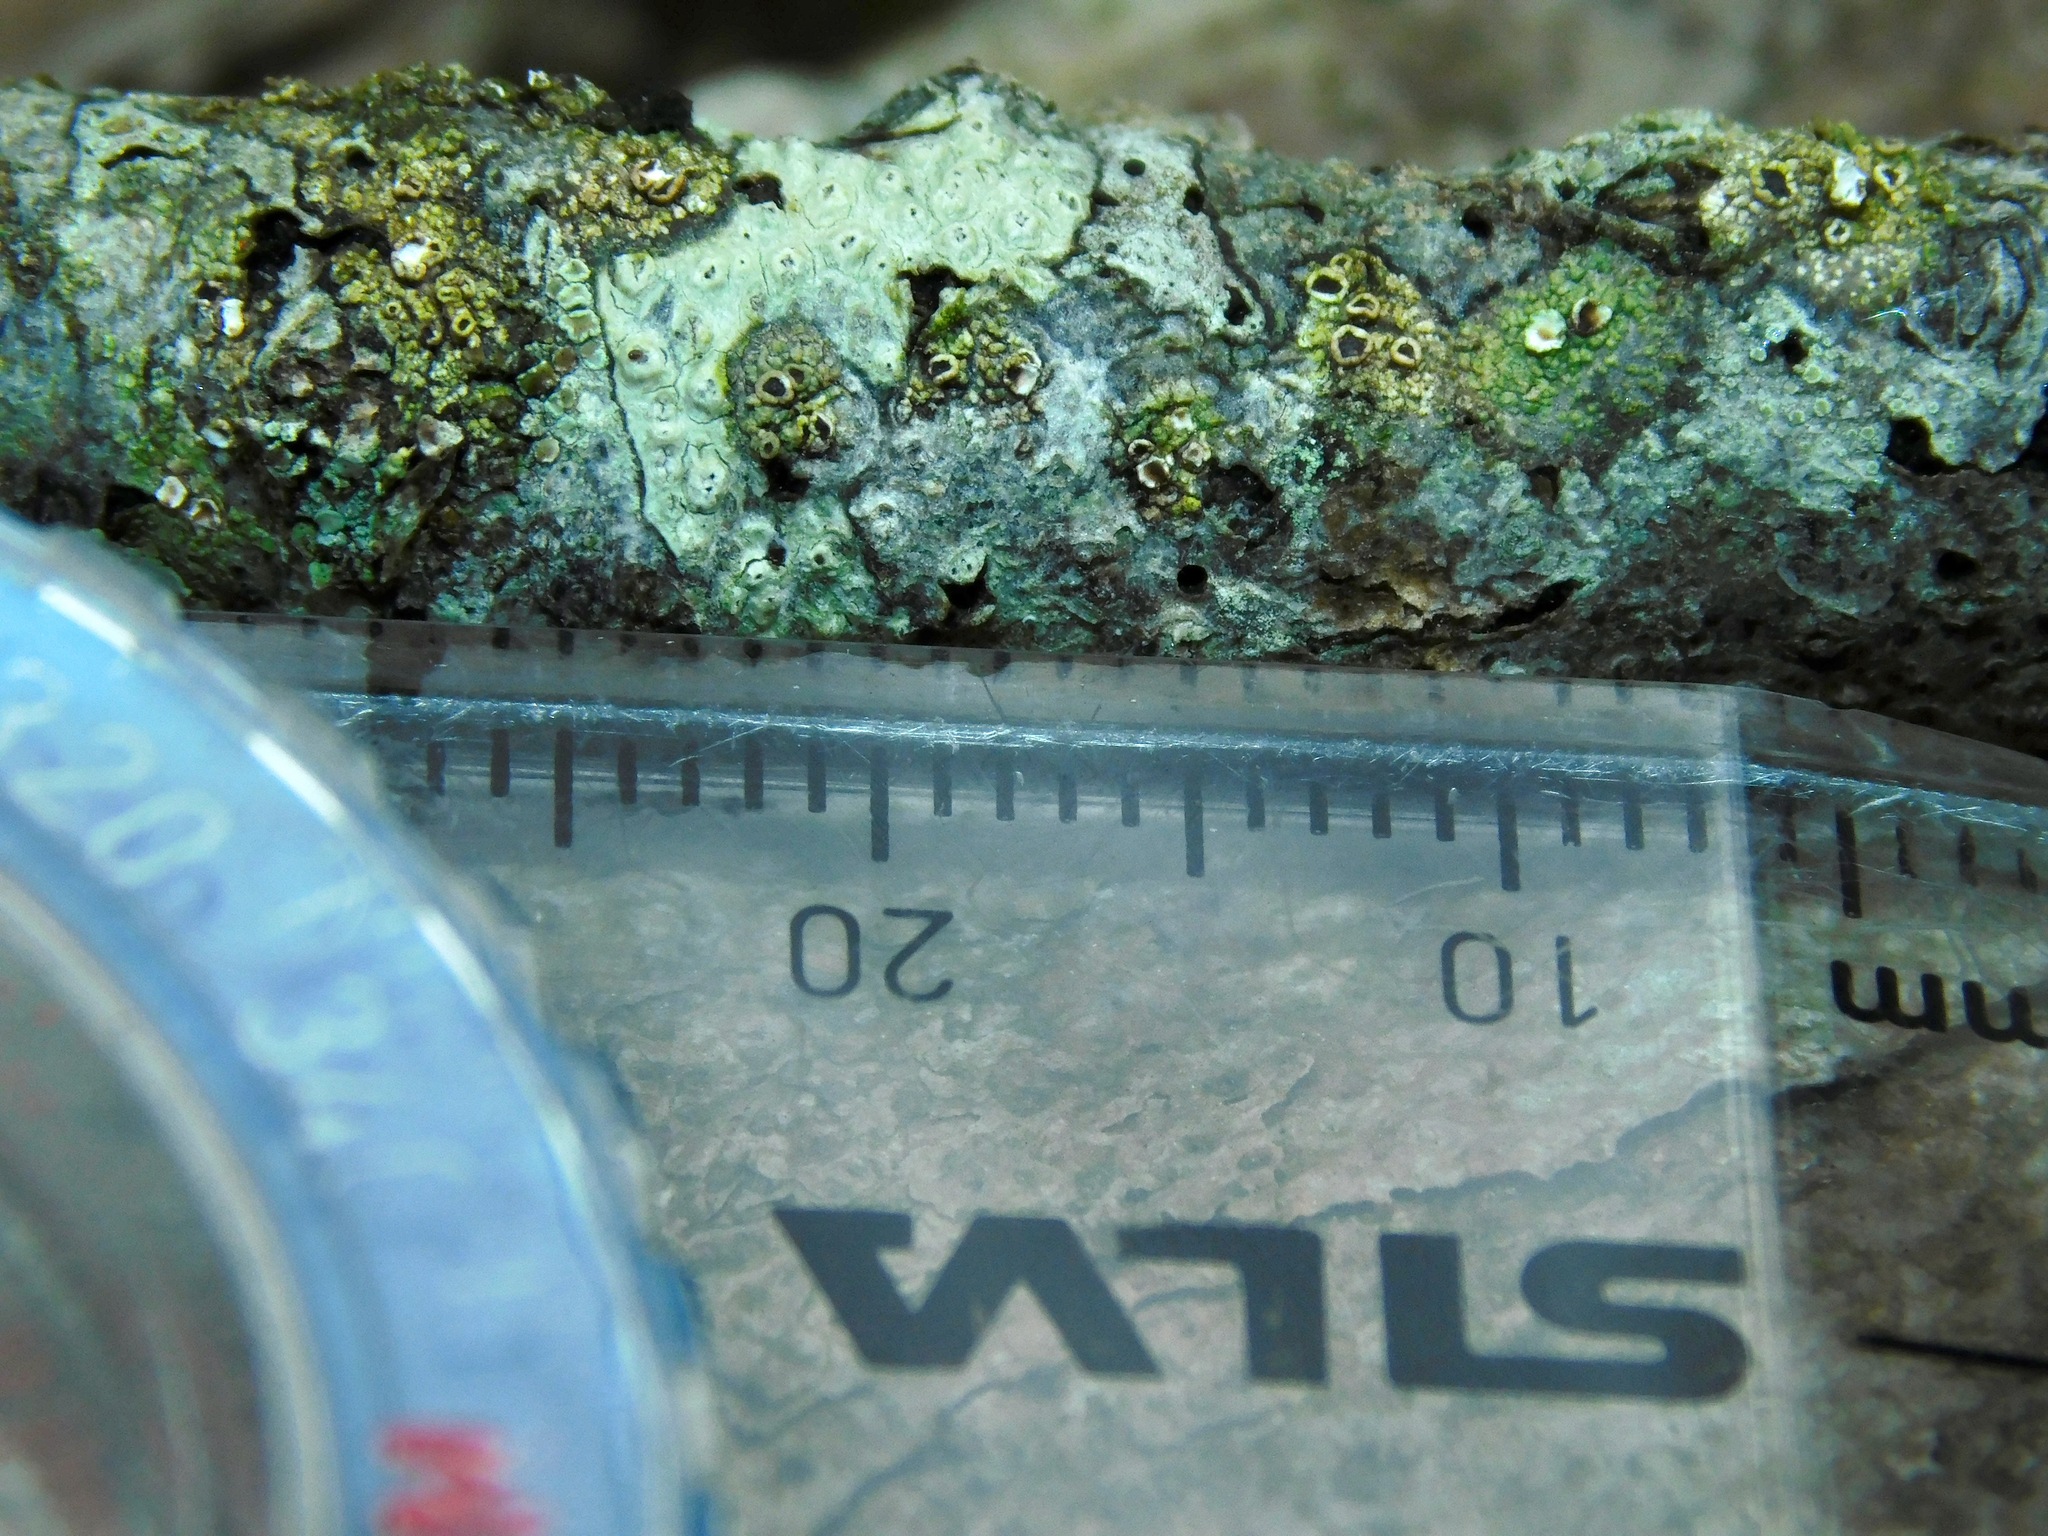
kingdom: Fungi
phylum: Ascomycota
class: Lecanoromycetes
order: Umbilicariales
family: Fuscideaceae
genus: Maronea
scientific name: Maronea polyphaea
